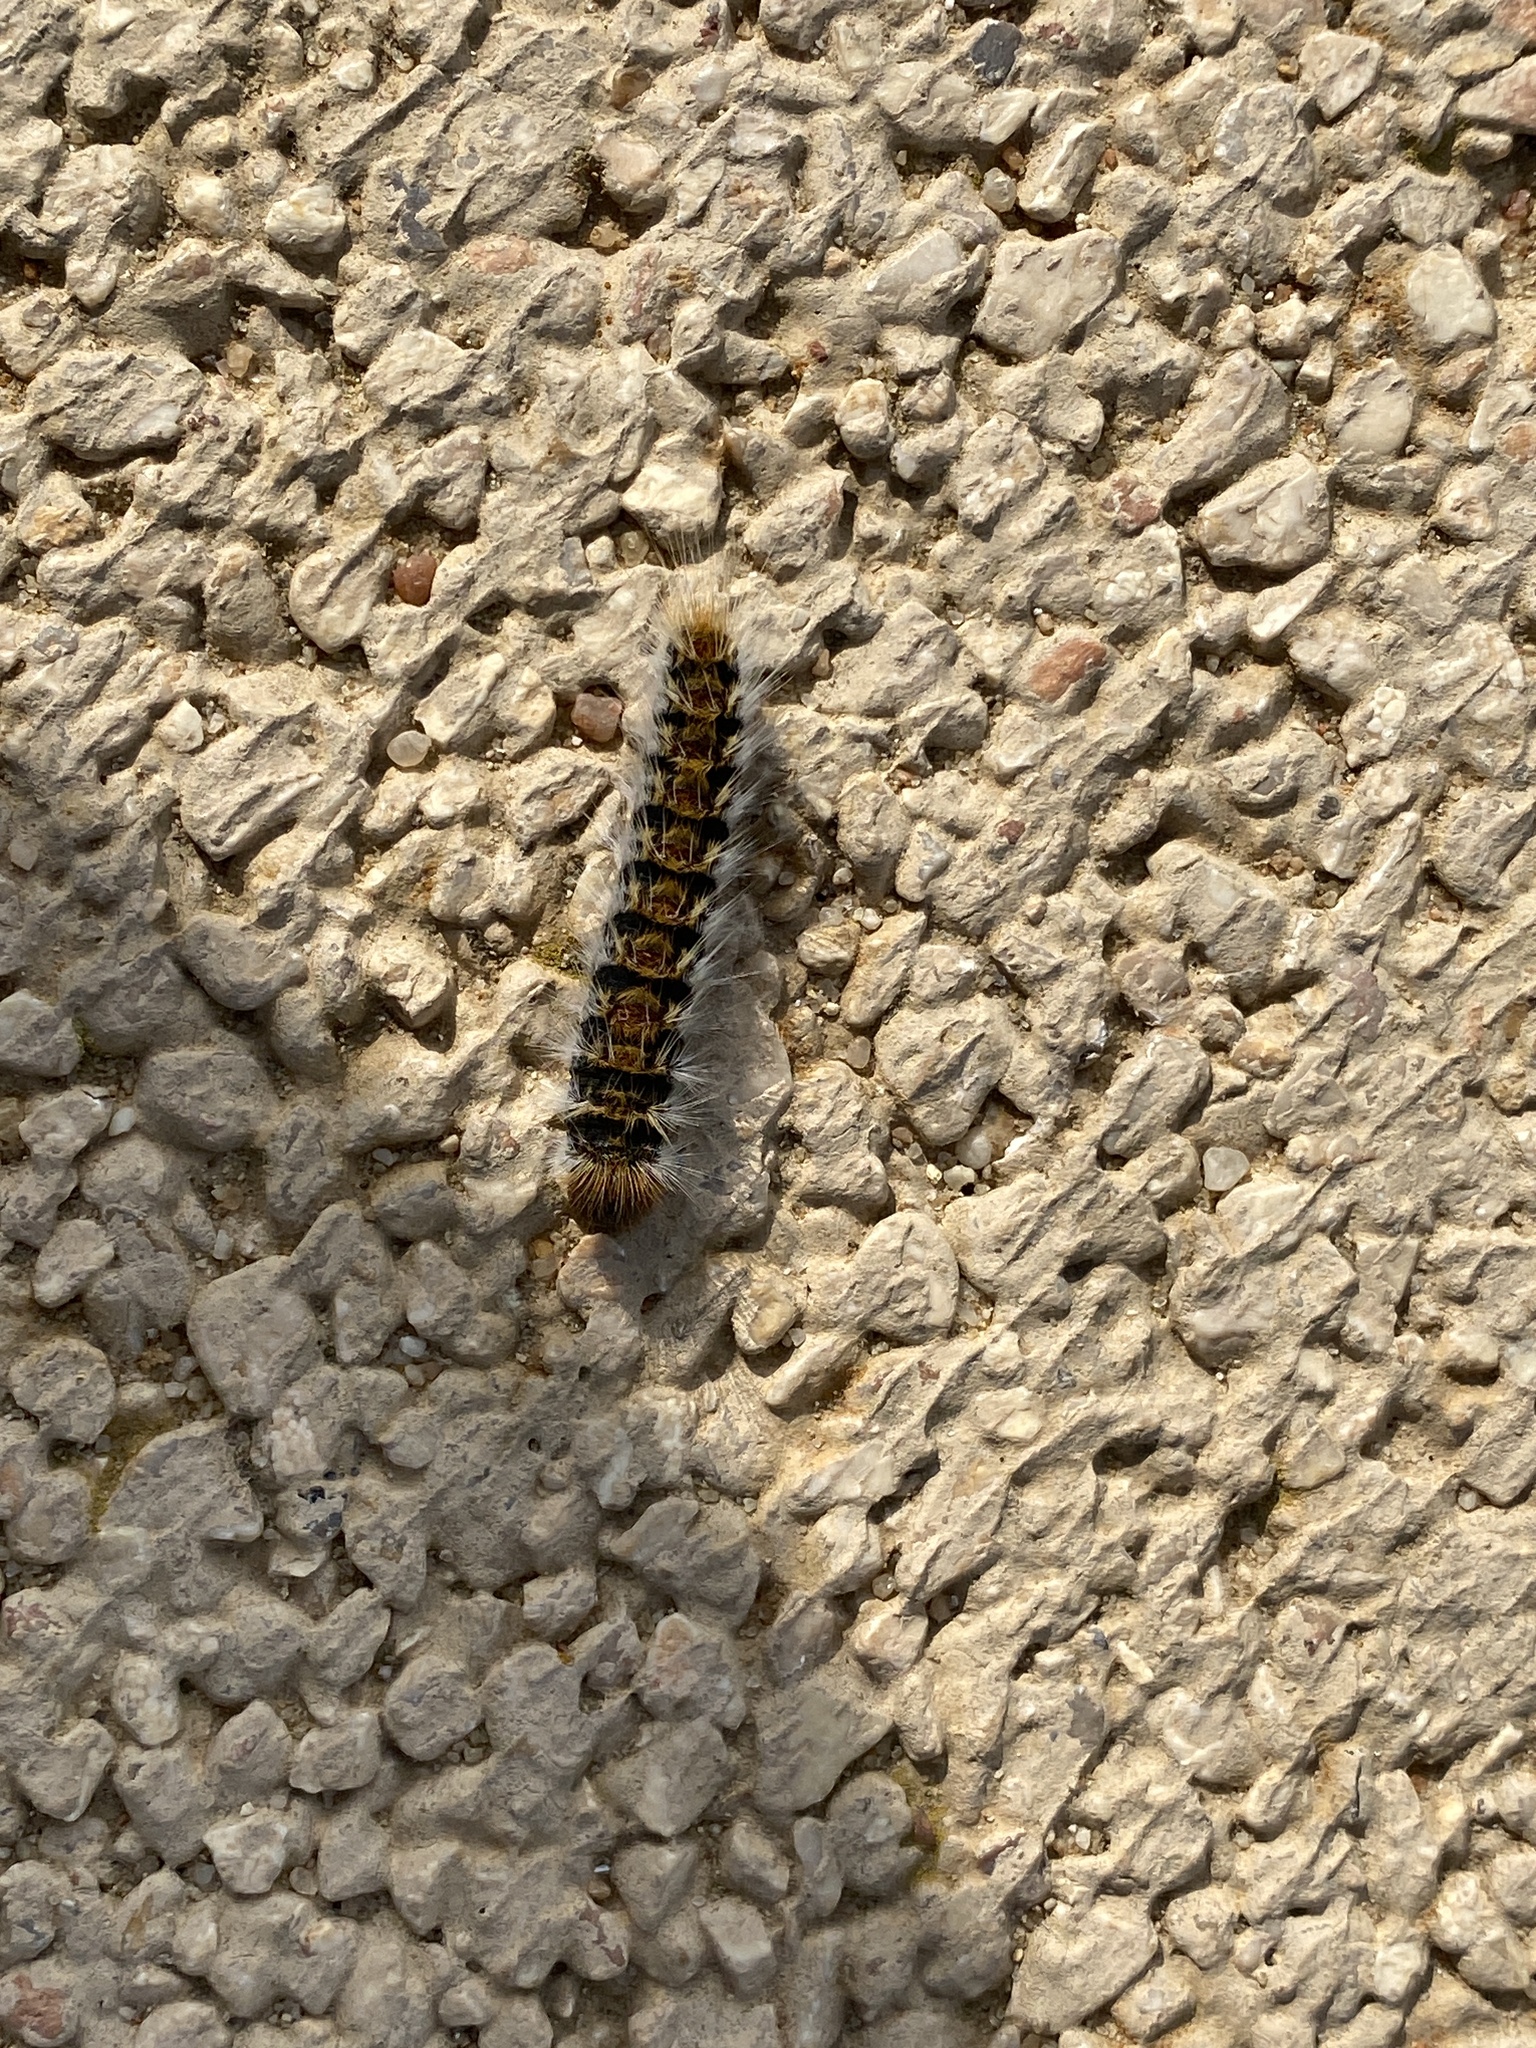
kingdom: Animalia
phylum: Arthropoda
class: Insecta
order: Lepidoptera
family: Notodontidae
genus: Thaumetopoea
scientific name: Thaumetopoea pityocampa
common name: Pine processionary
